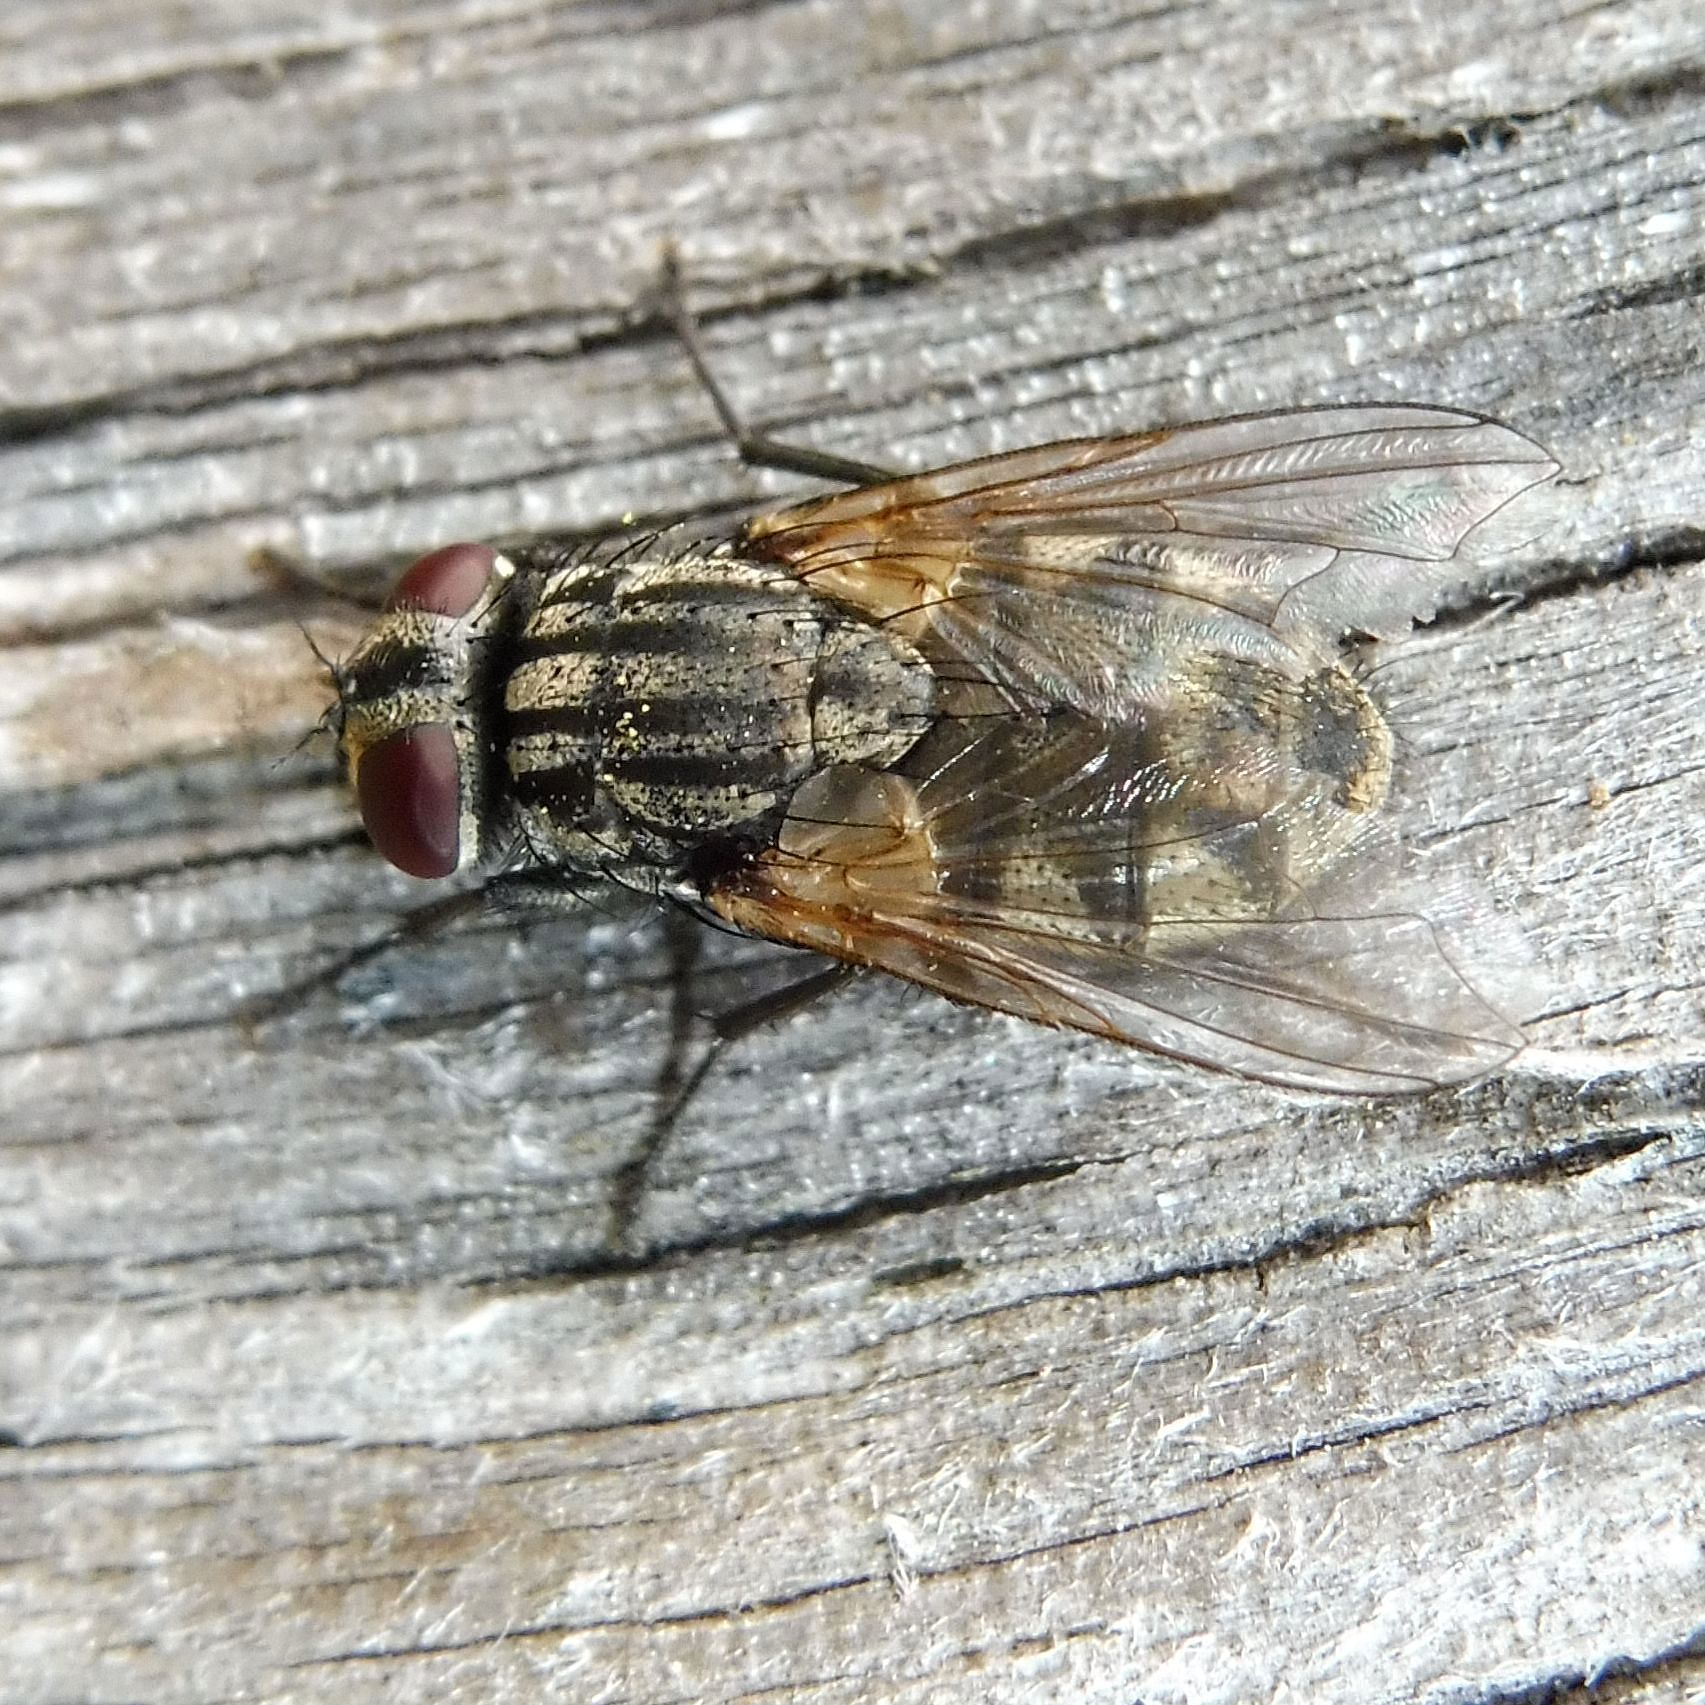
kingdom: Animalia
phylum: Arthropoda
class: Insecta
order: Diptera
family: Muscidae
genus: Musca
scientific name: Musca autumnalis
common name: Face fly
